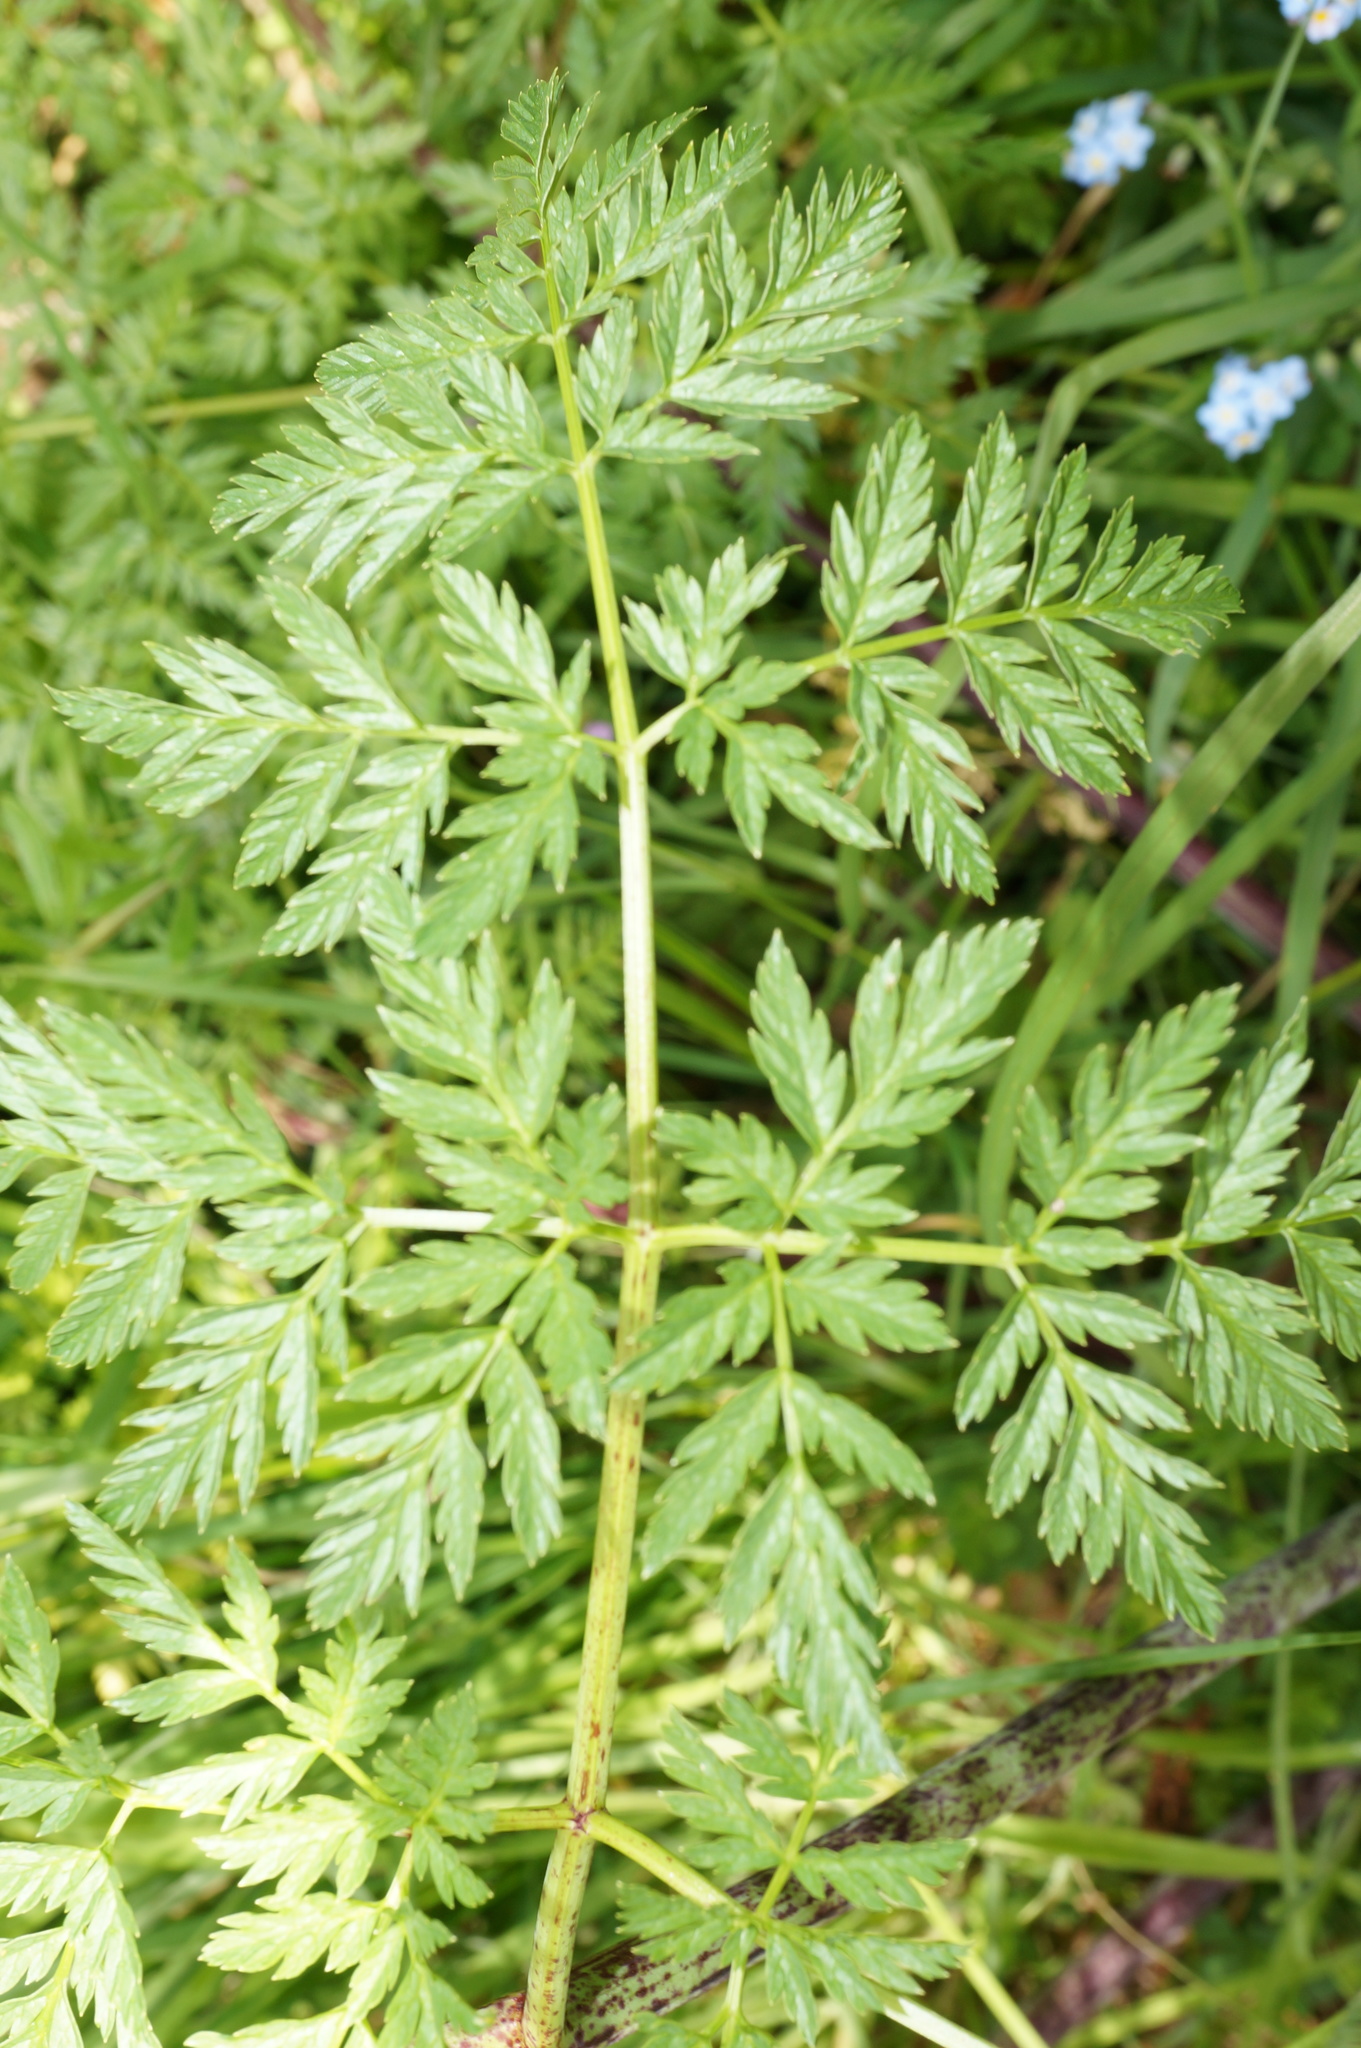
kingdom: Plantae
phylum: Tracheophyta
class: Magnoliopsida
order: Apiales
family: Apiaceae
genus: Conium
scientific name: Conium maculatum
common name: Hemlock
